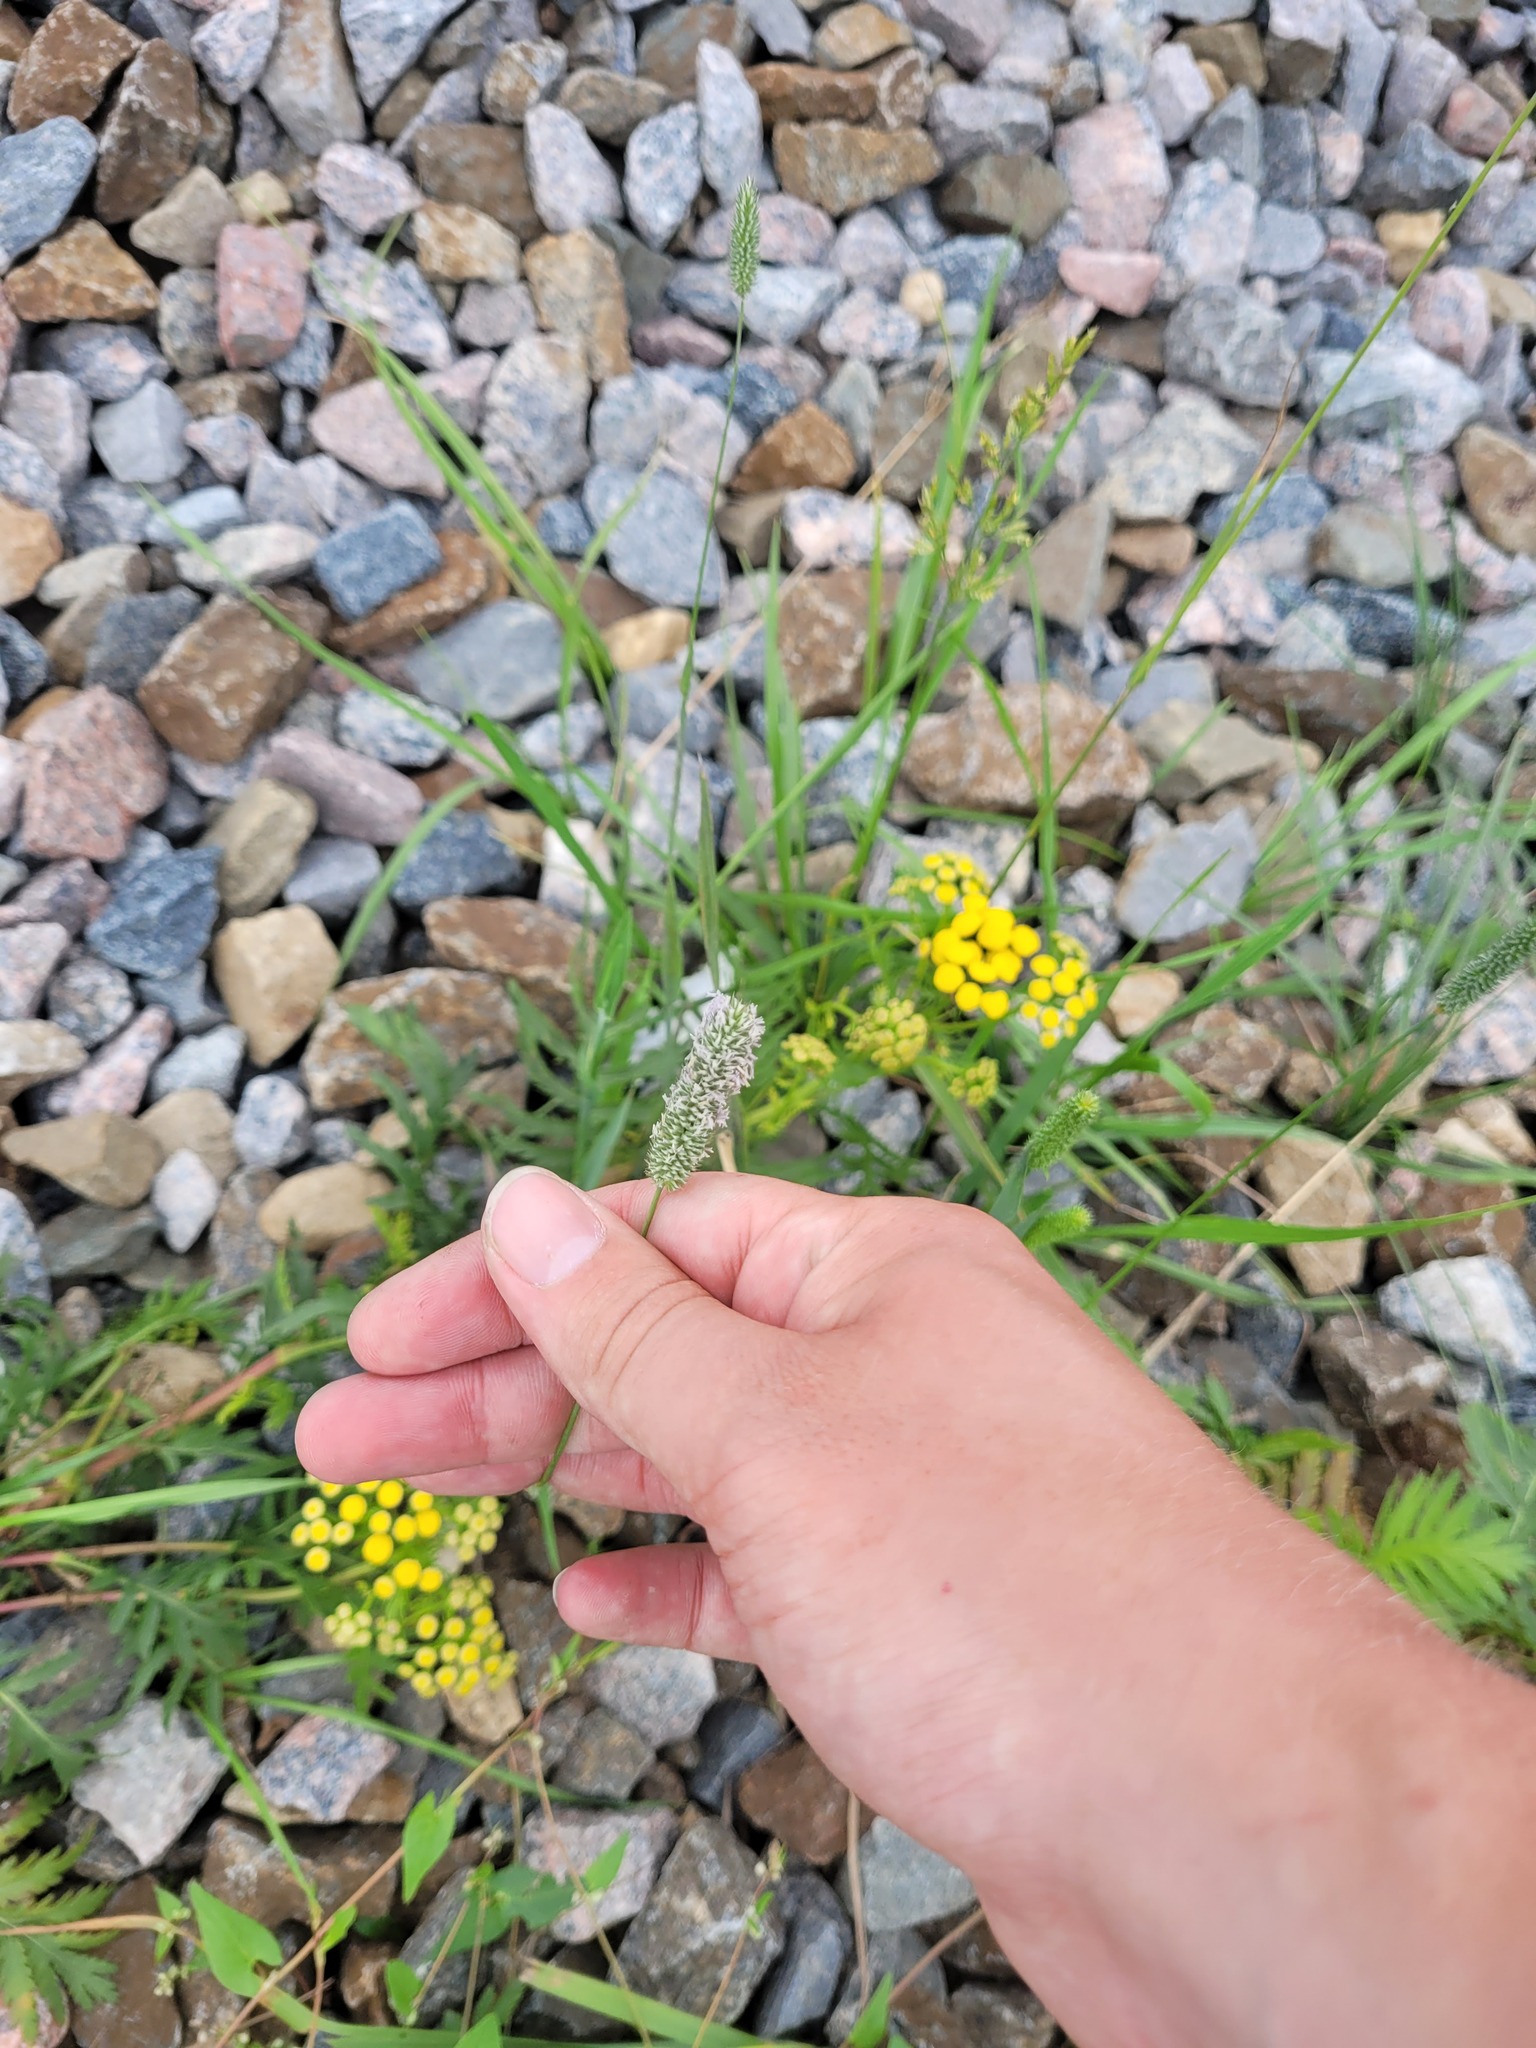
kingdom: Plantae
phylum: Tracheophyta
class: Liliopsida
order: Poales
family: Poaceae
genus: Phleum
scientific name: Phleum pratense
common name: Timothy grass
